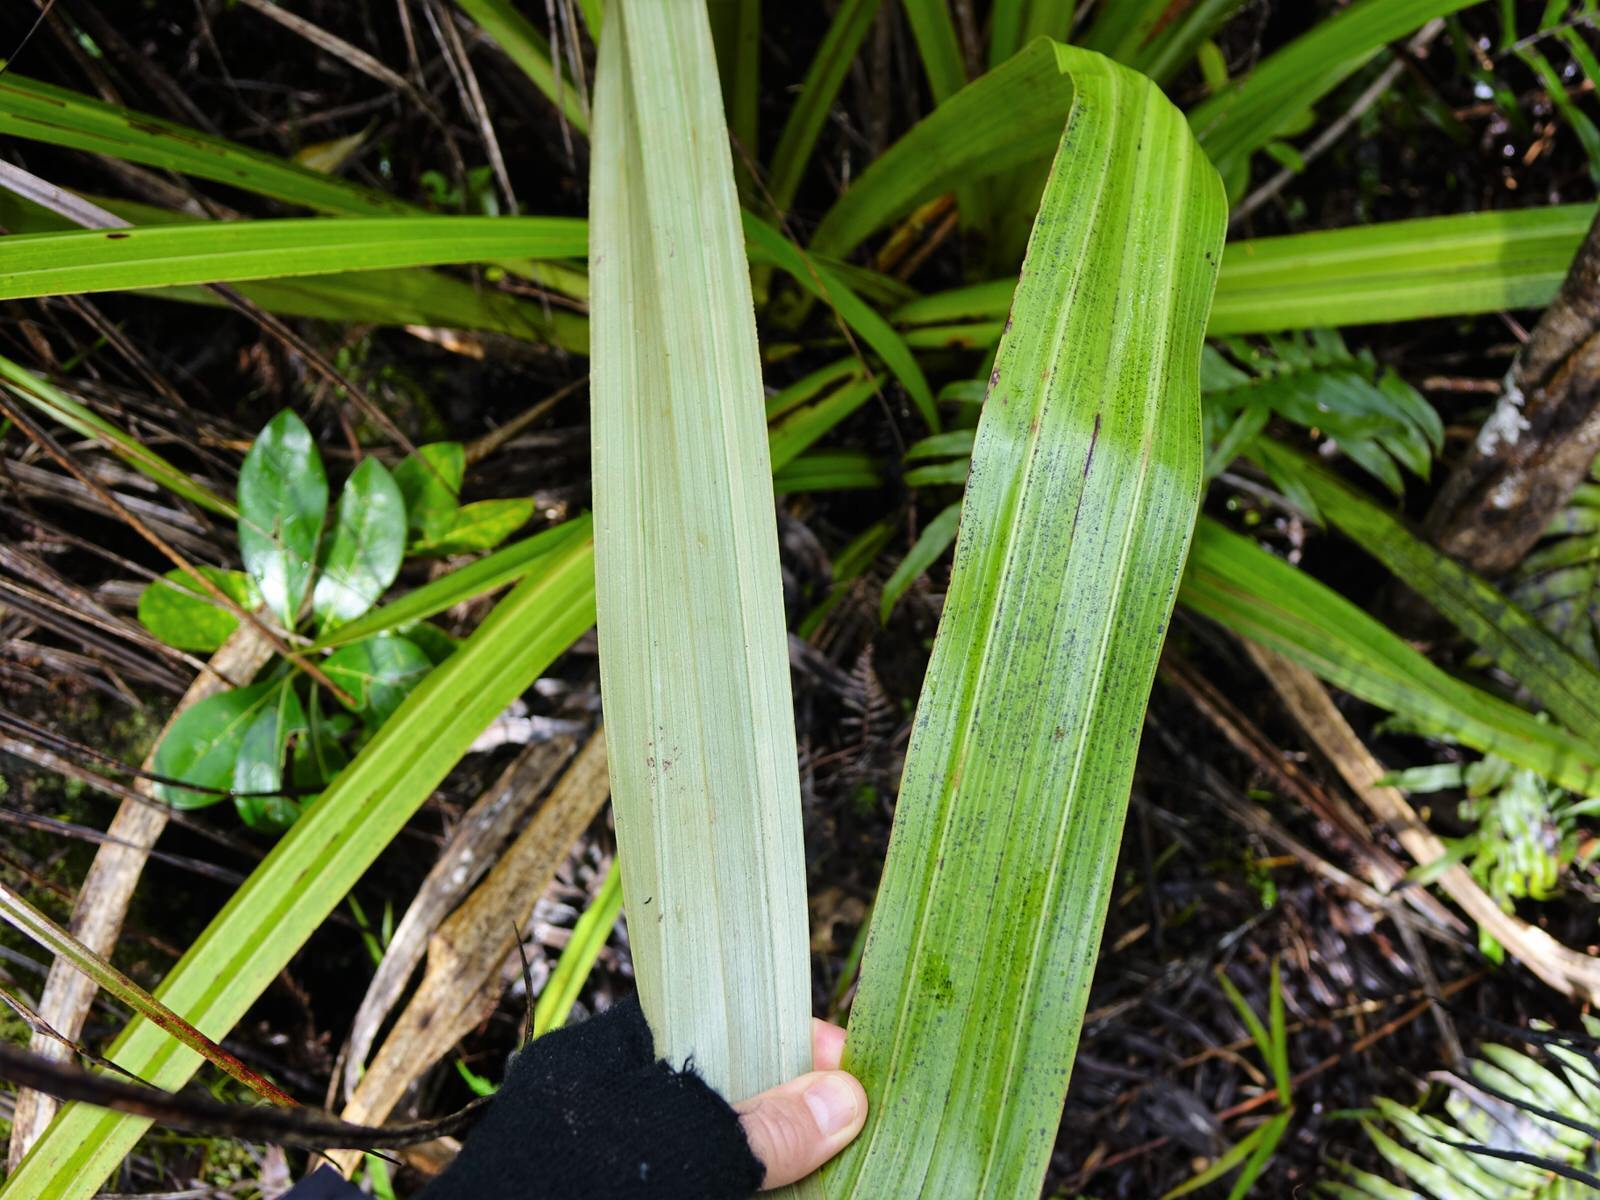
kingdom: Plantae
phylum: Tracheophyta
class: Liliopsida
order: Asparagales
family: Asteliaceae
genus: Astelia
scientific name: Astelia grandis
